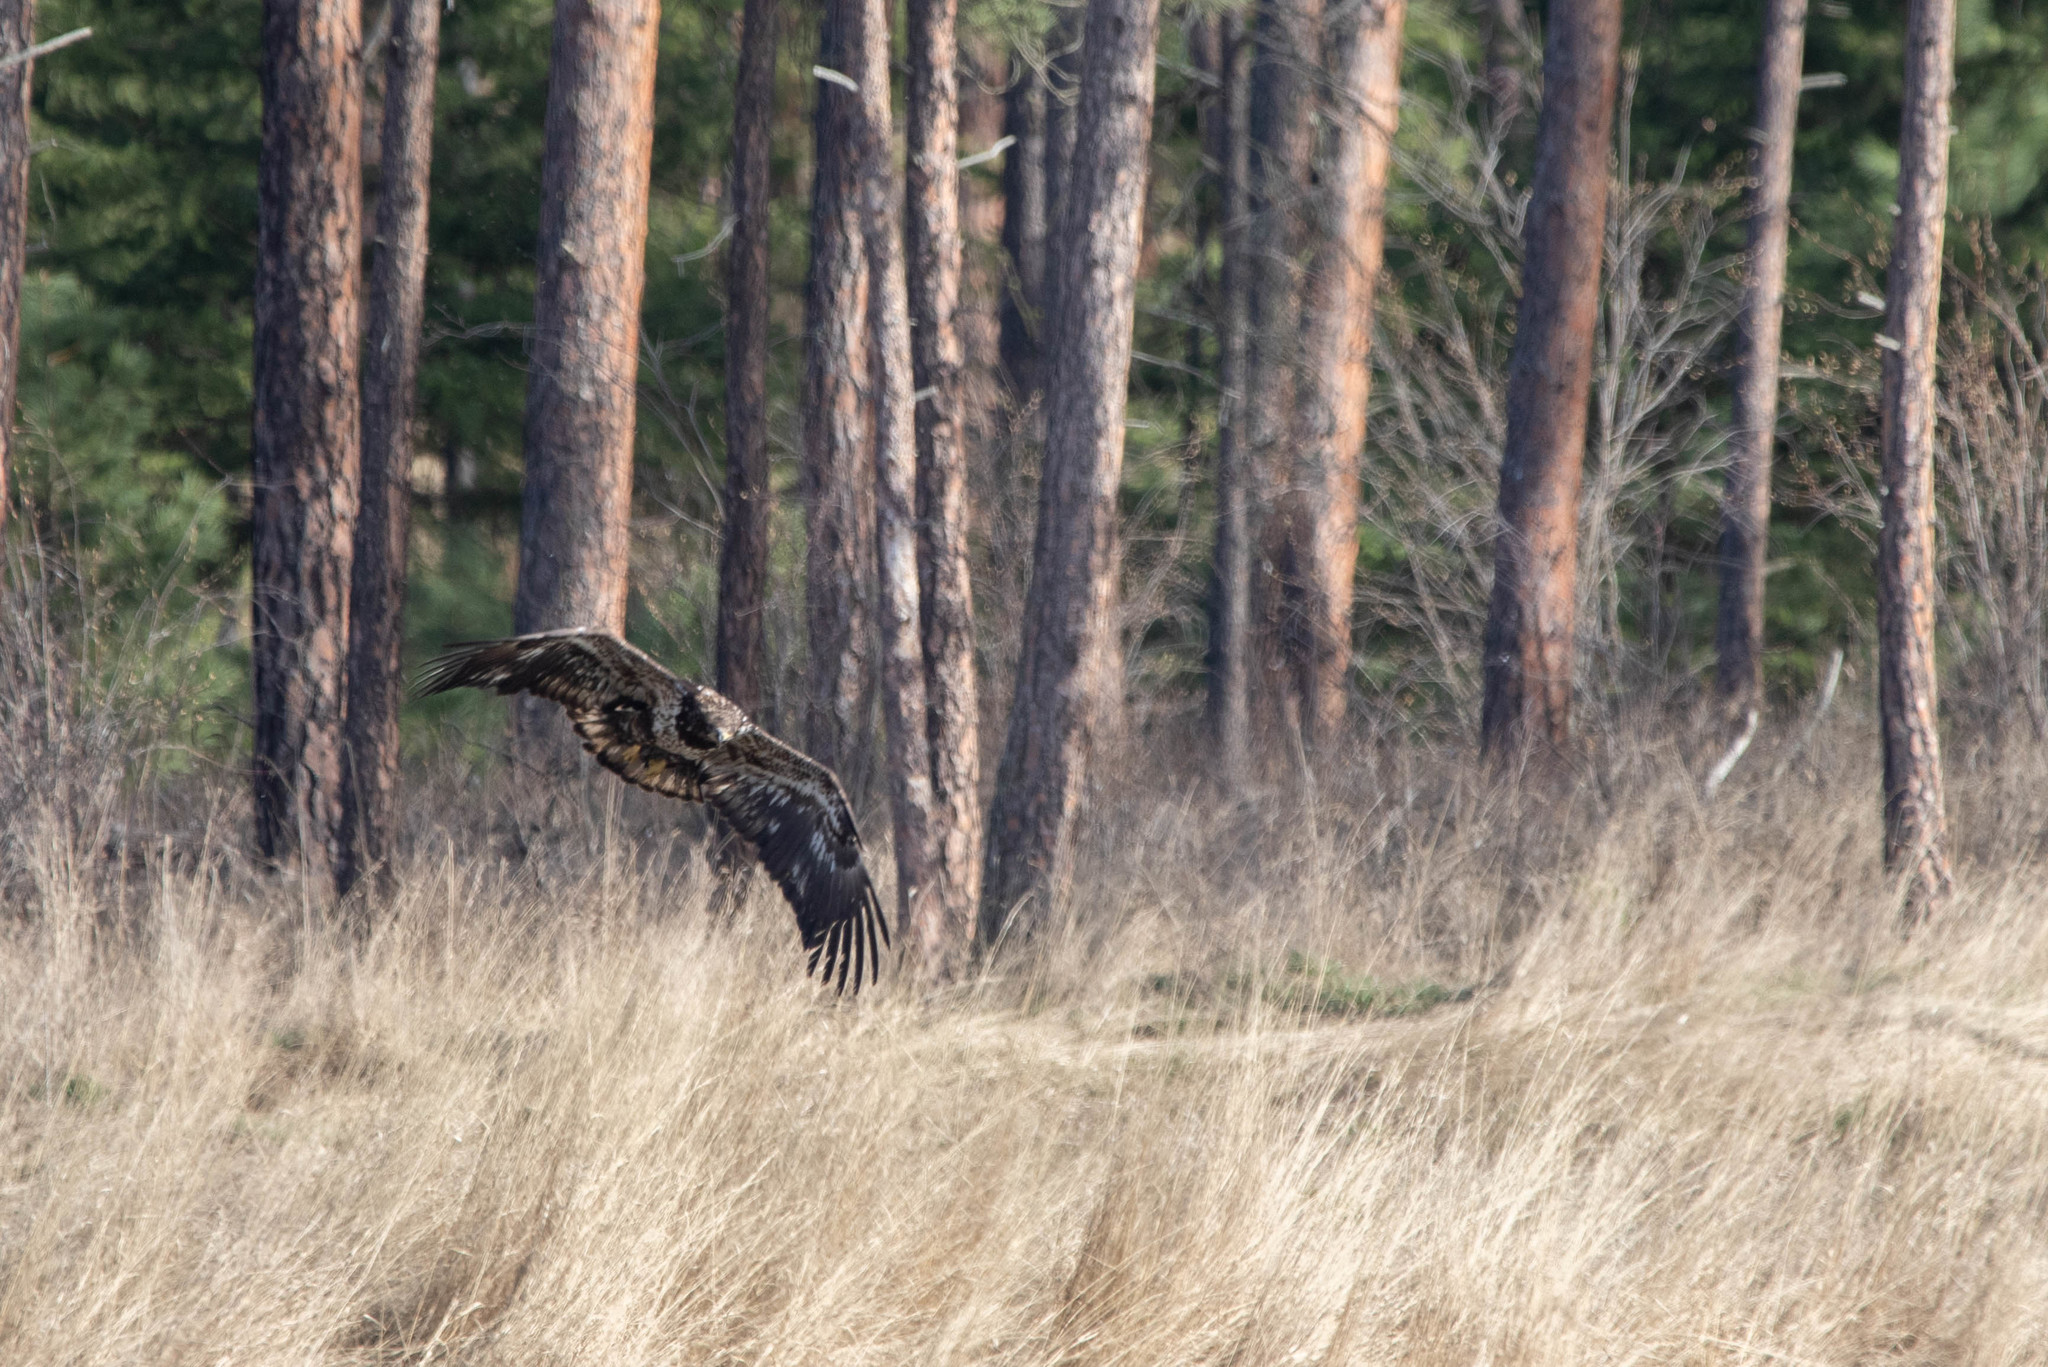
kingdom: Animalia
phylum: Chordata
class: Aves
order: Accipitriformes
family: Accipitridae
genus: Haliaeetus
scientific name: Haliaeetus leucocephalus
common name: Bald eagle
